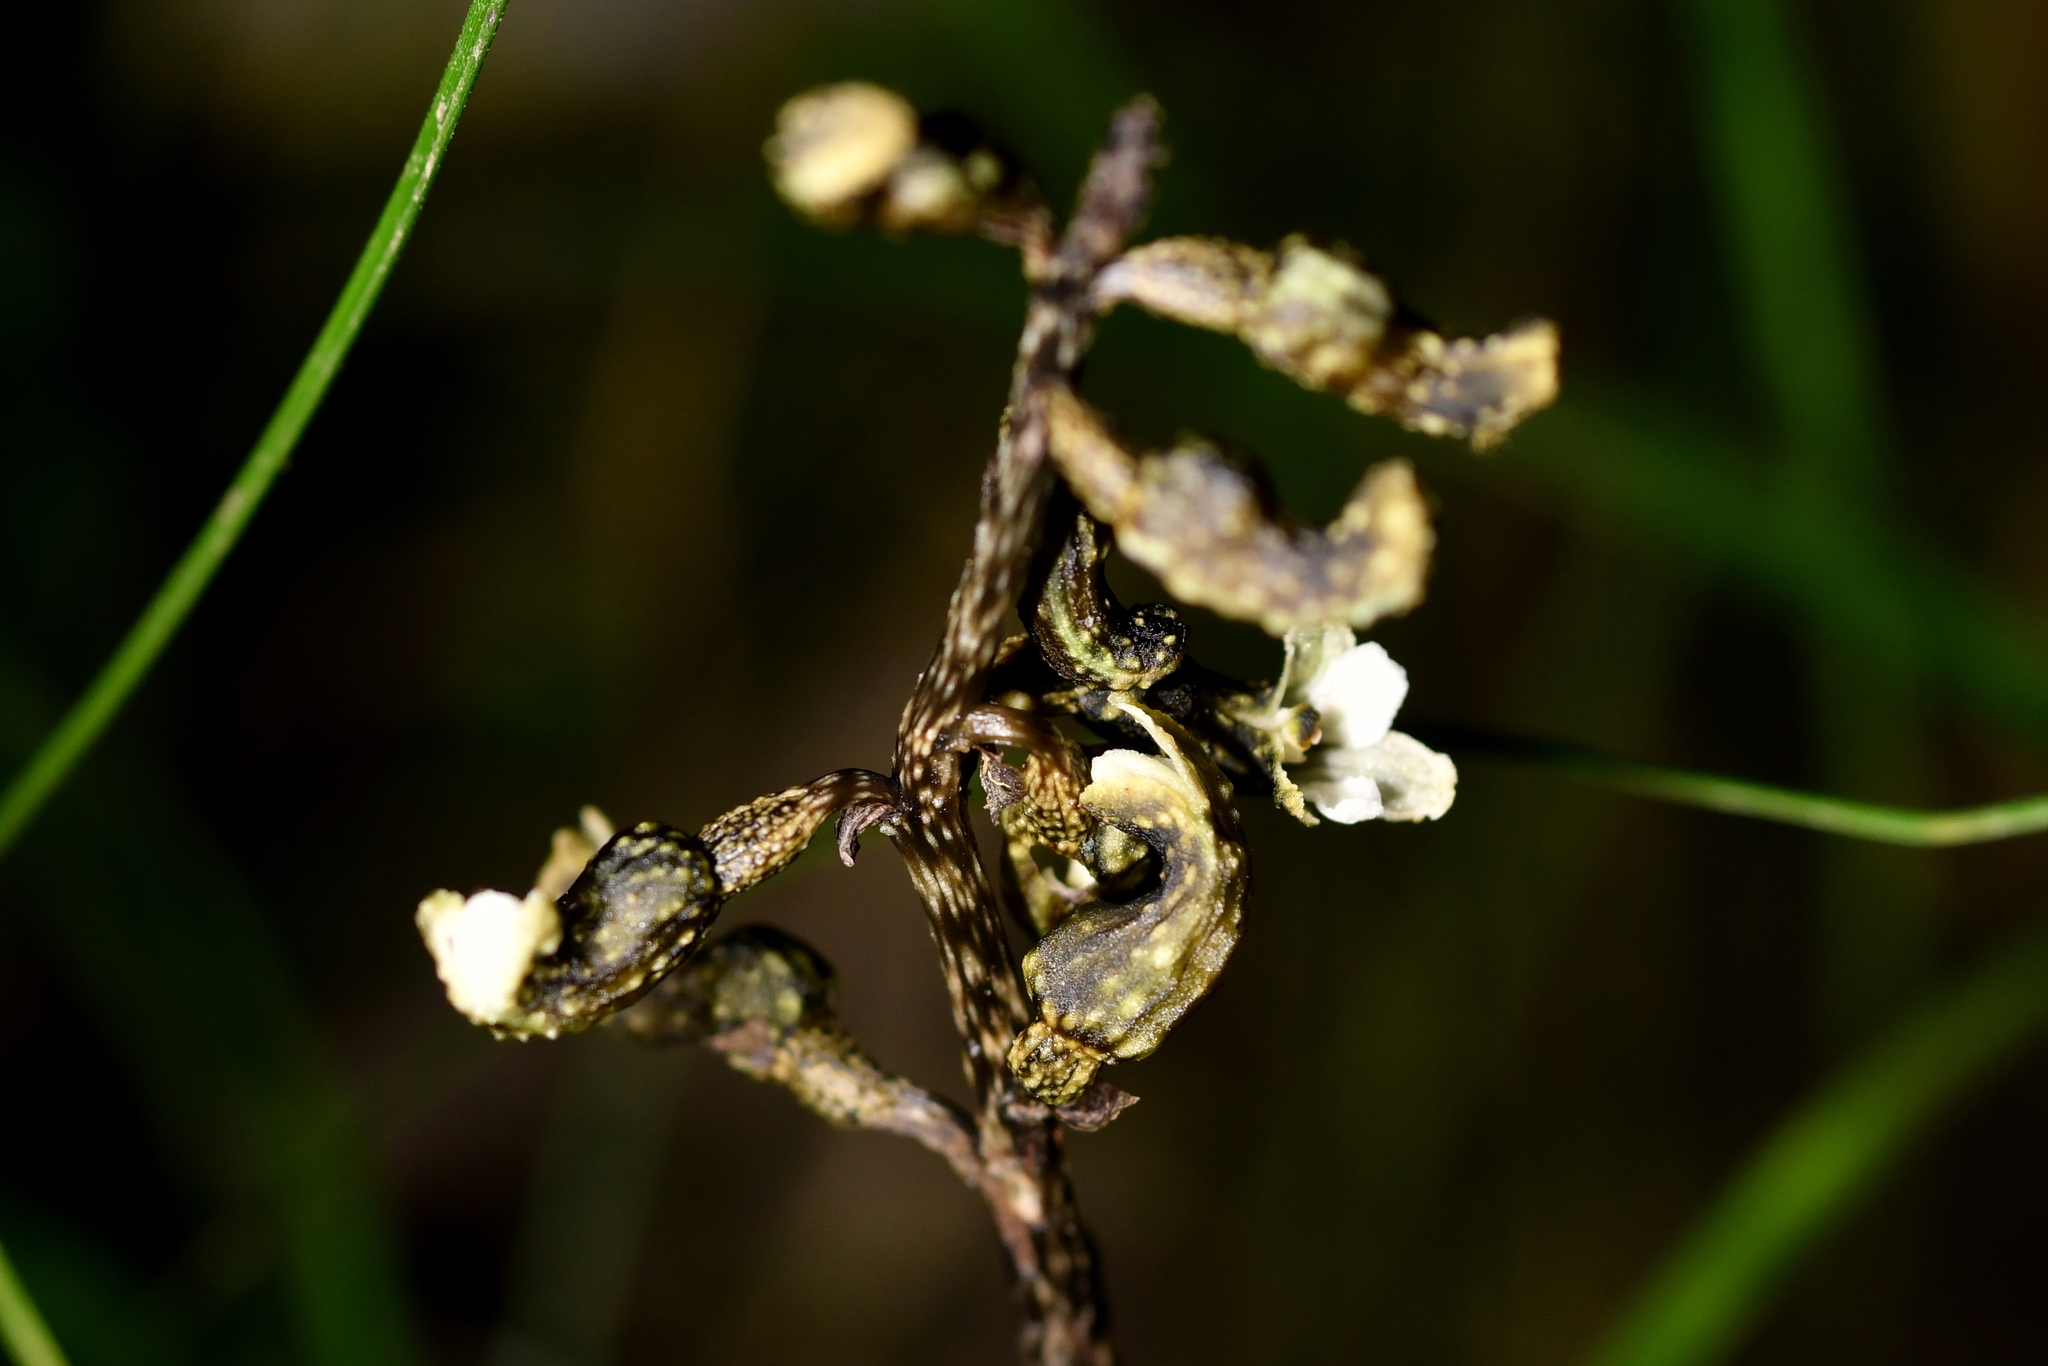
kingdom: Plantae
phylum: Tracheophyta
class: Liliopsida
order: Asparagales
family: Orchidaceae
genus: Gastrodia
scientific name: Gastrodia cunninghamii
